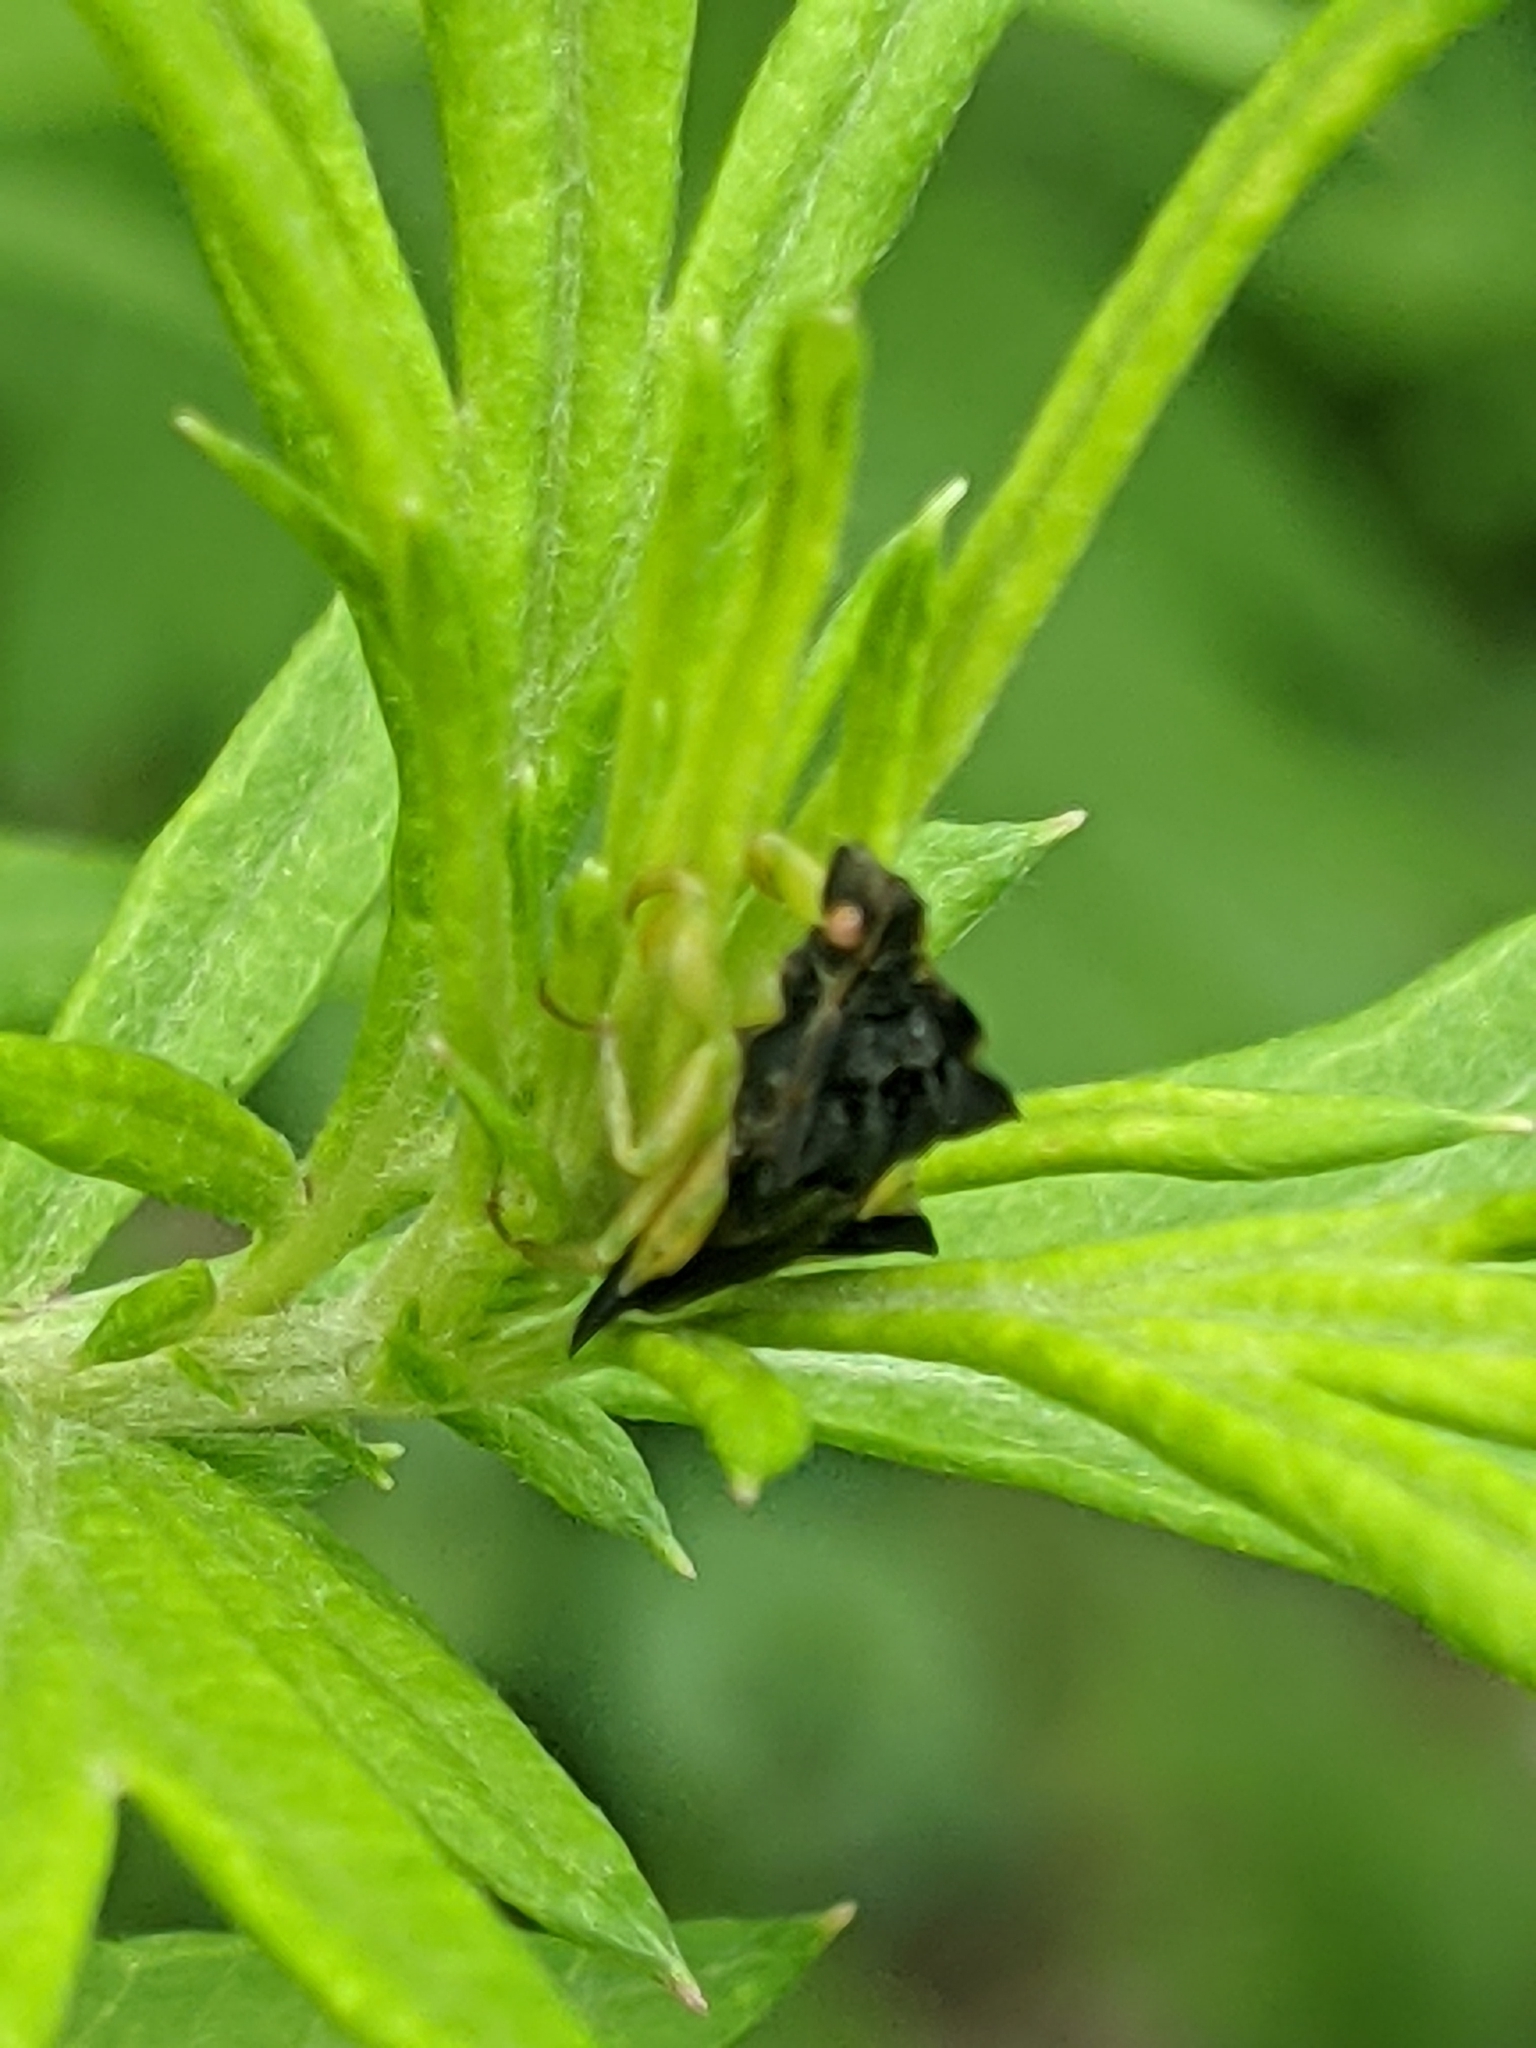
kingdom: Animalia
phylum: Arthropoda
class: Insecta
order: Hemiptera
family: Reduviidae
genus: Phymata
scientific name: Phymata pennsylvanica
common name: Pennsylvania ambush bug
